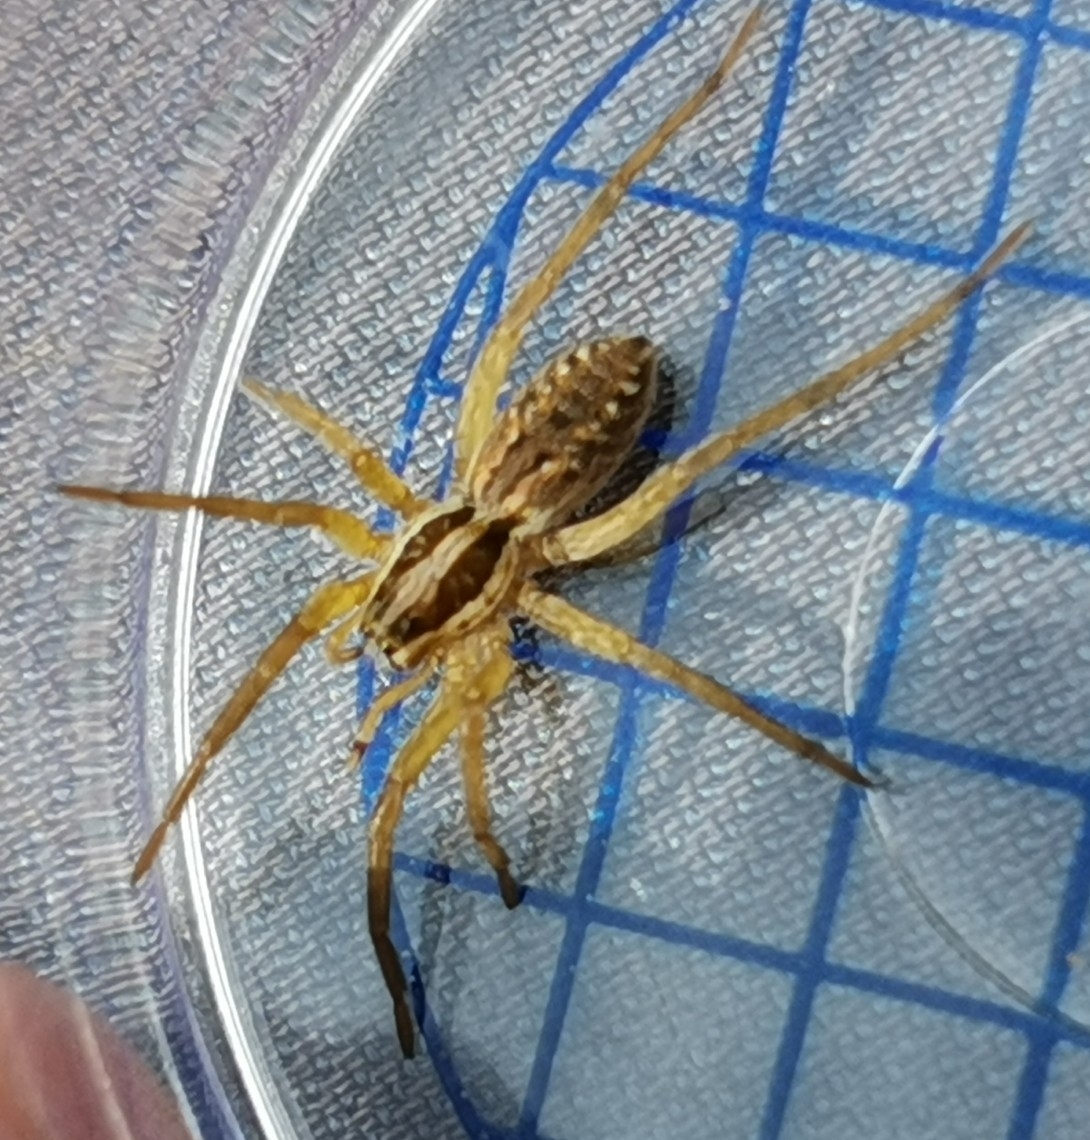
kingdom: Animalia
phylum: Arthropoda
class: Arachnida
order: Araneae
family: Lycosidae
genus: Hogna
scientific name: Hogna radiata
